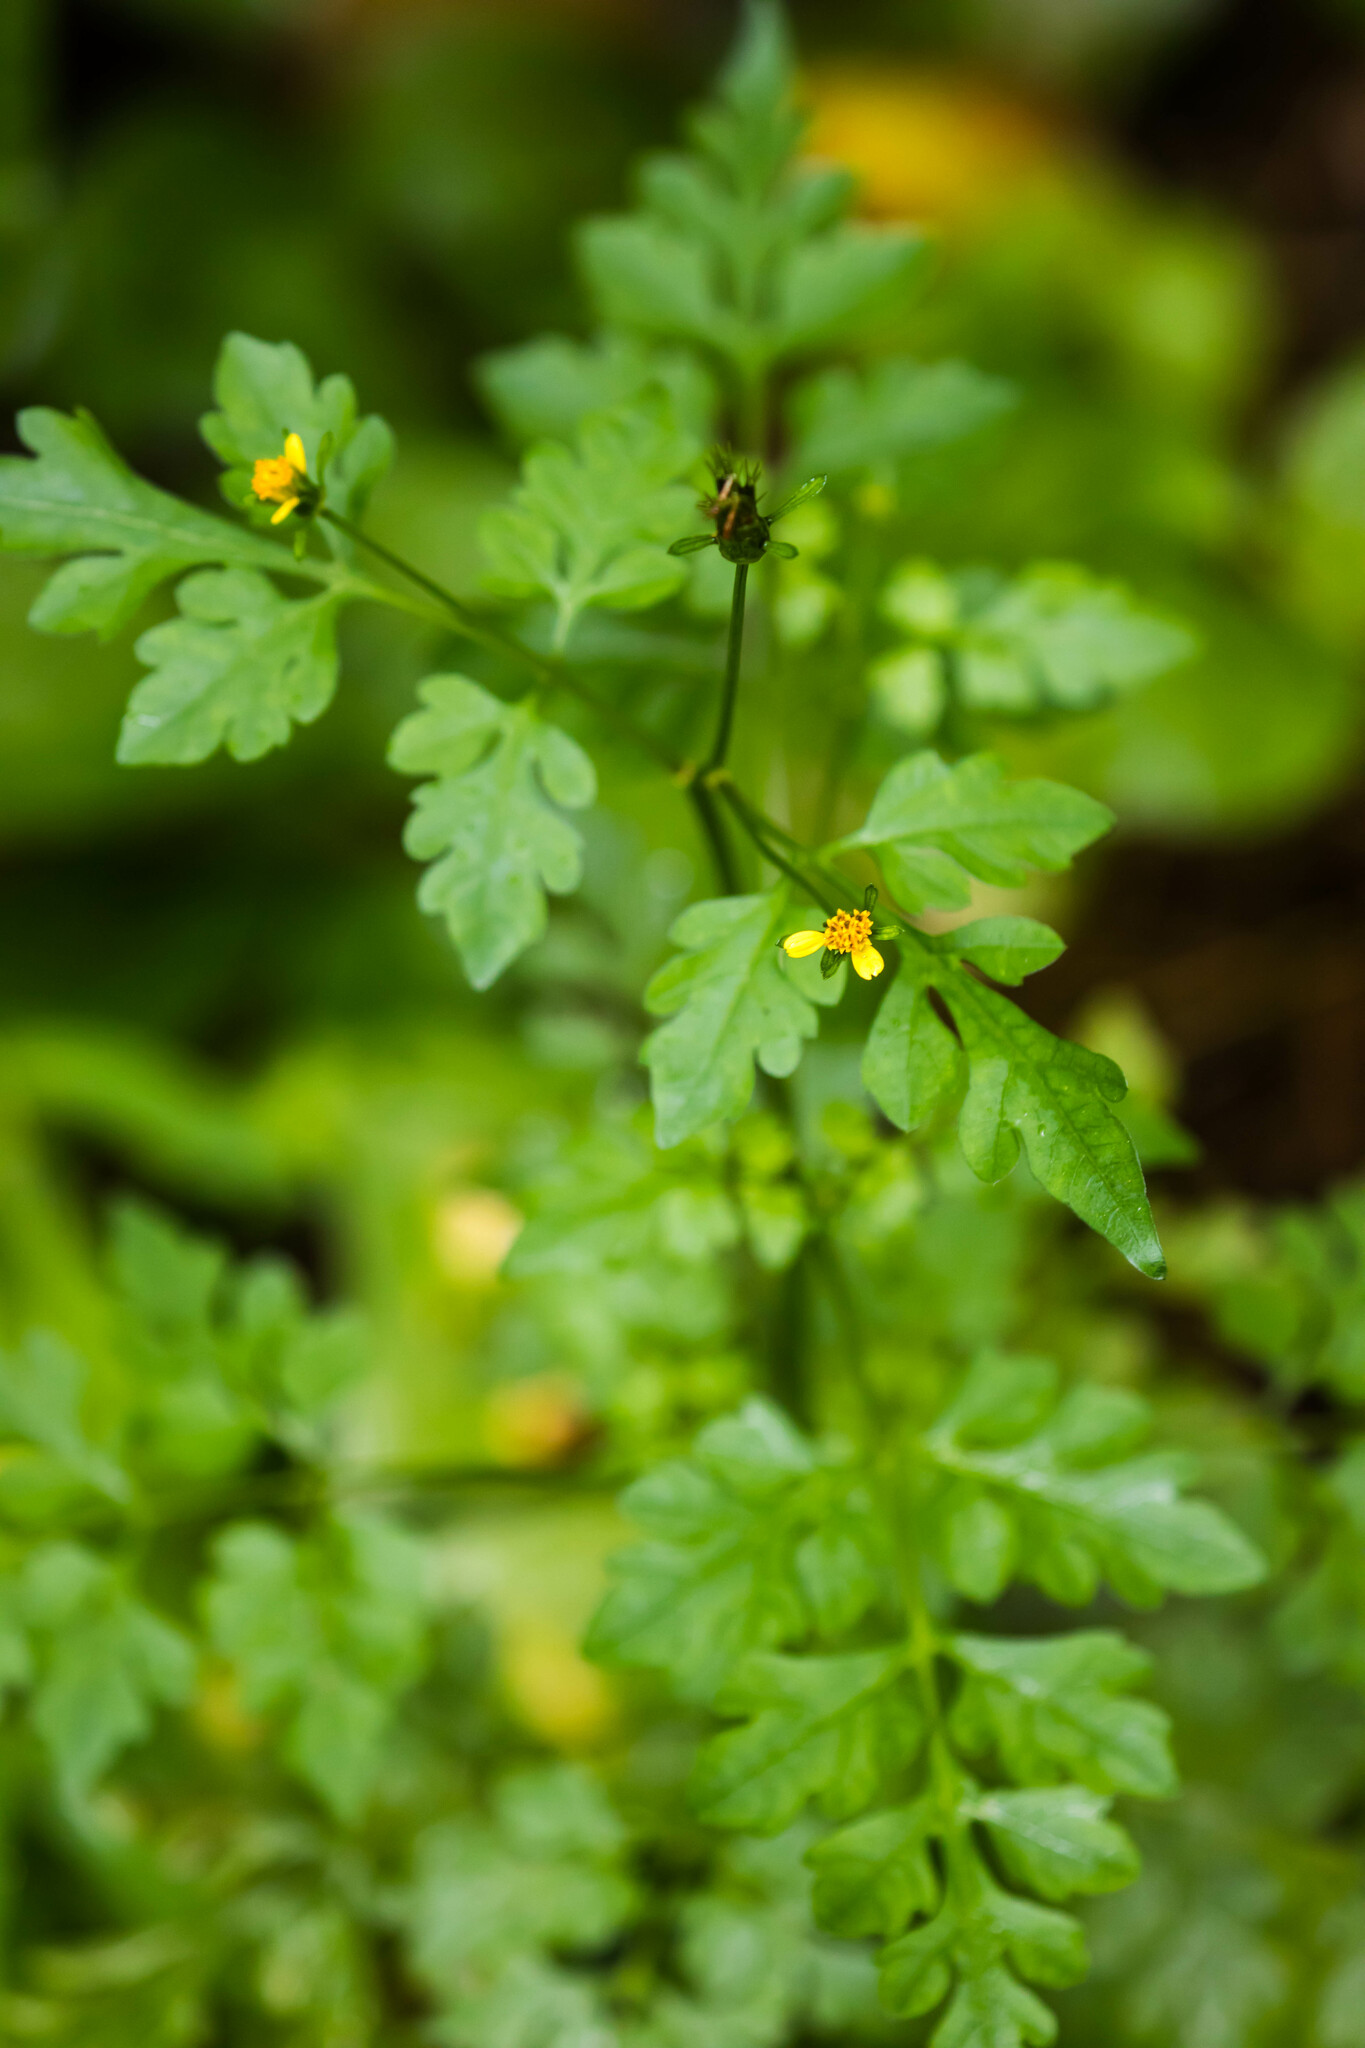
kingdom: Plantae
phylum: Tracheophyta
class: Magnoliopsida
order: Asterales
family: Asteraceae
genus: Bidens
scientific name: Bidens bipinnata
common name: Spanish-needles
